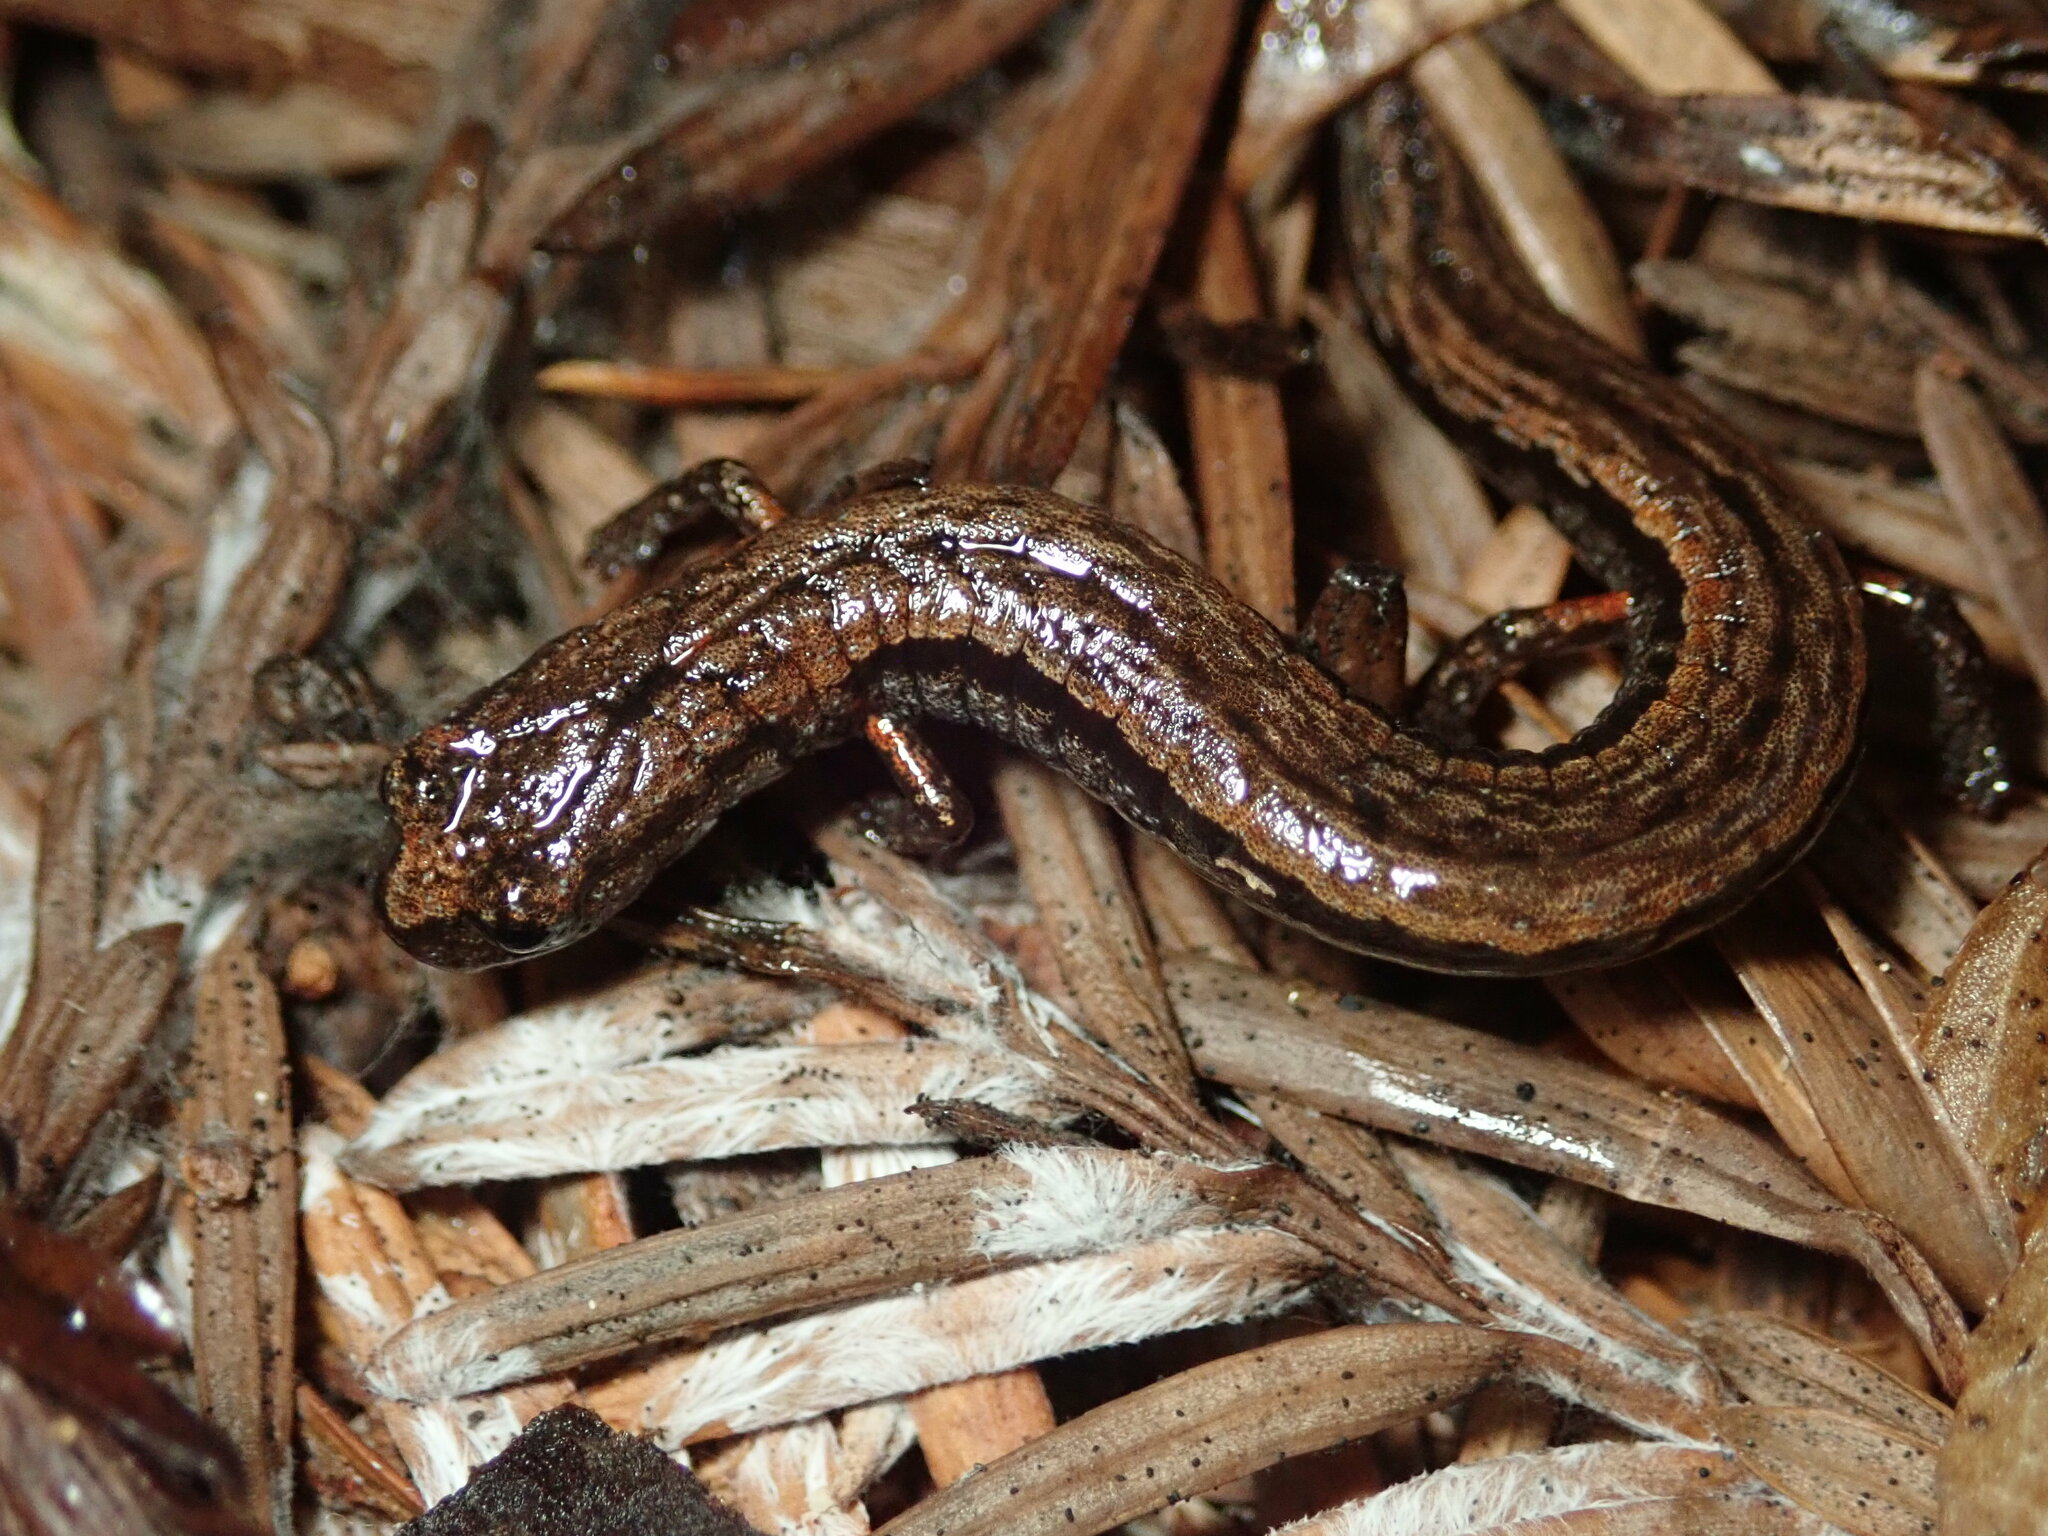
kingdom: Animalia
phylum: Chordata
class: Amphibia
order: Caudata
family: Plethodontidae
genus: Batrachoseps
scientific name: Batrachoseps attenuatus
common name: California slender salamander
